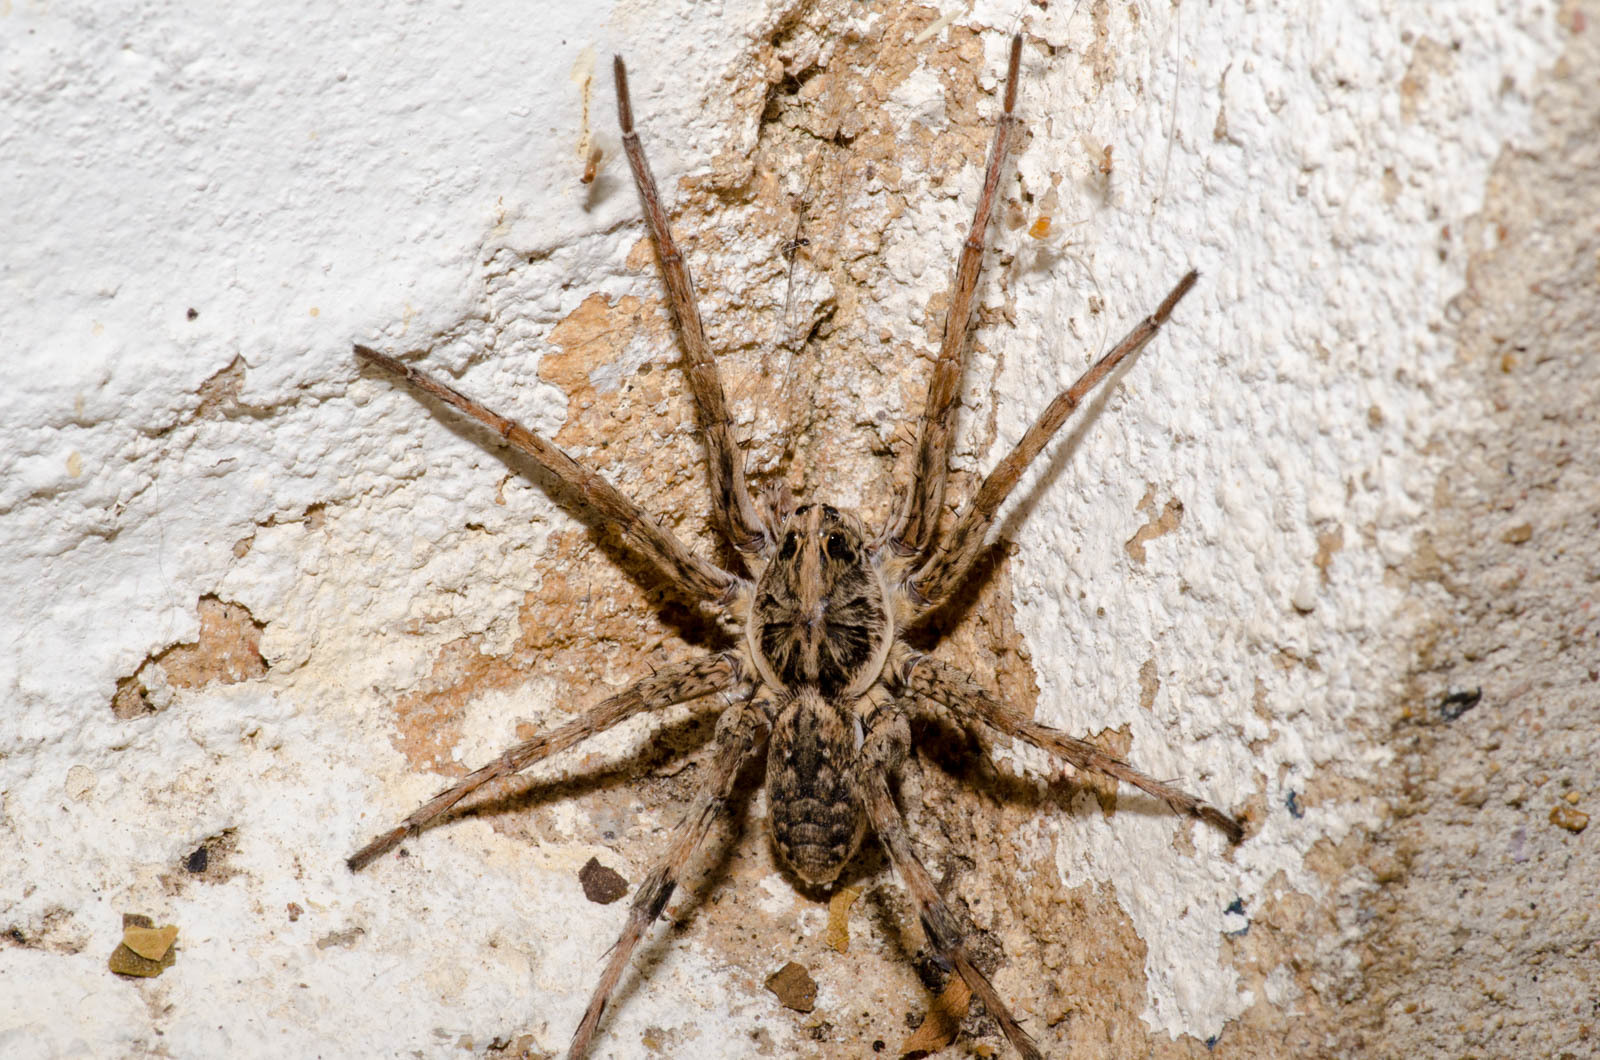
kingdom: Animalia
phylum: Arthropoda
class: Arachnida
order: Araneae
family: Lycosidae
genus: Hogna
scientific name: Hogna antelucana
